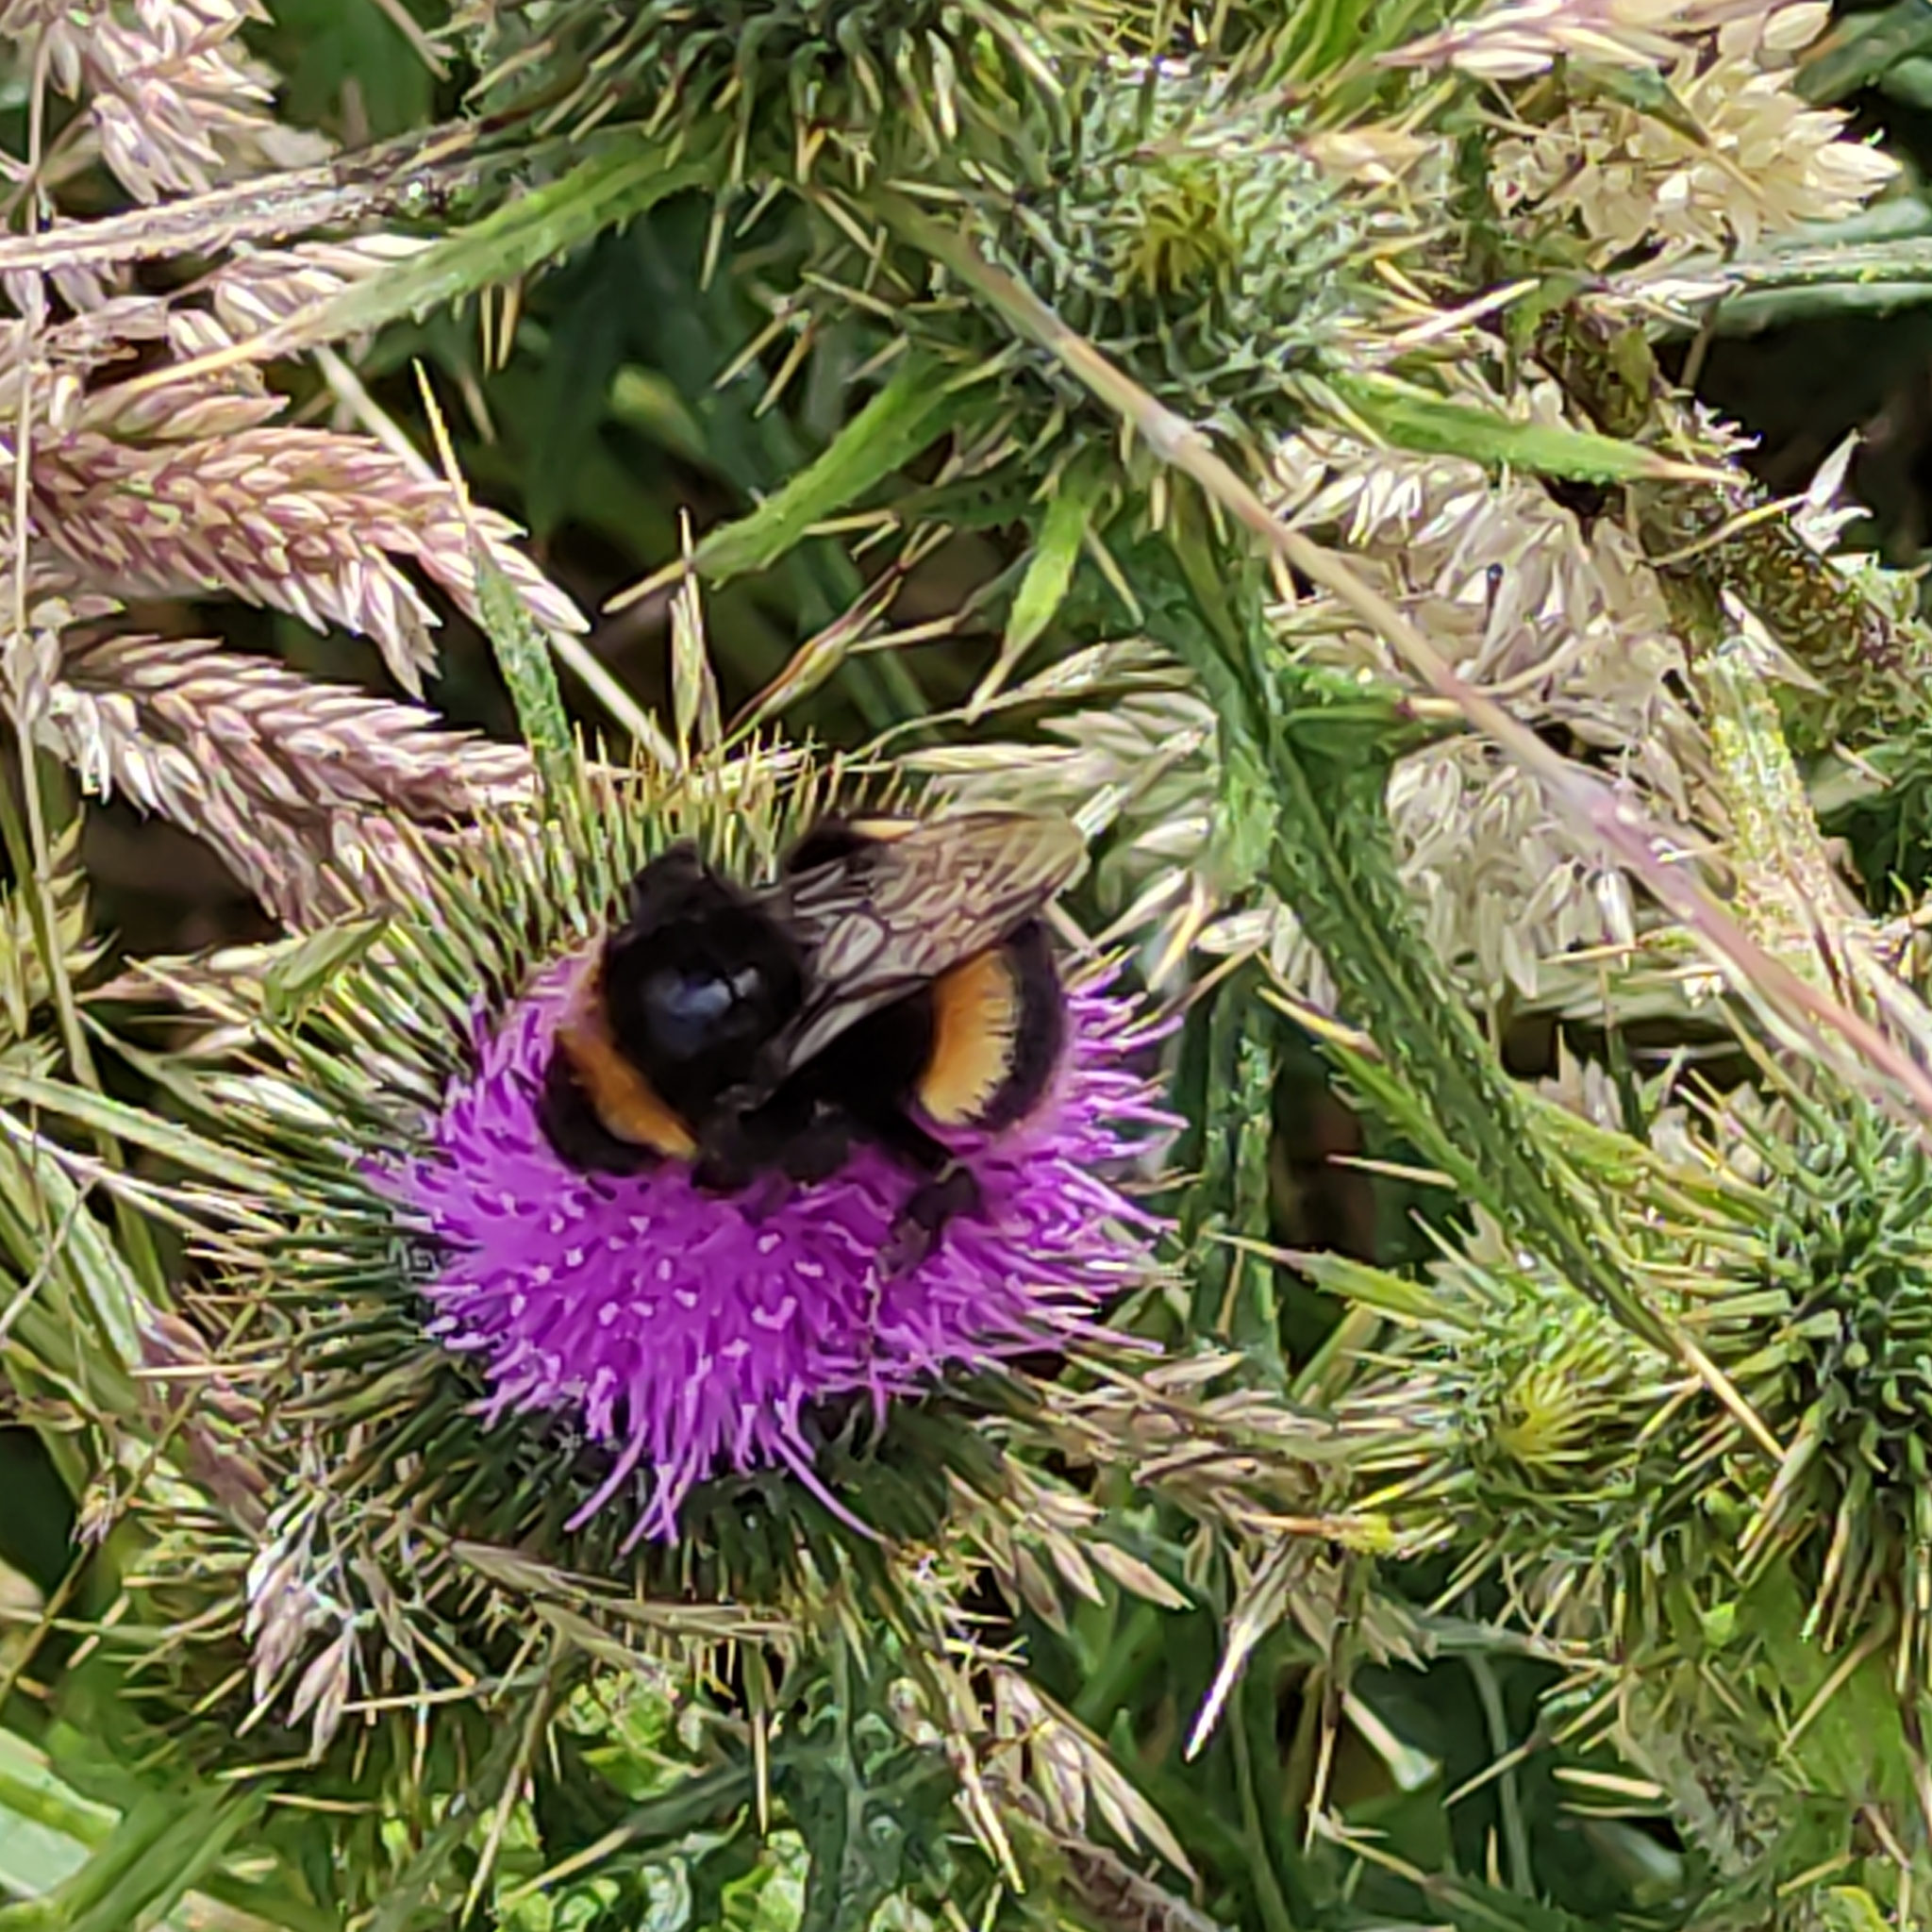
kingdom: Animalia
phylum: Arthropoda
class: Insecta
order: Hymenoptera
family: Apidae
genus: Bombus
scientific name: Bombus terrestris
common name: Buff-tailed bumblebee
